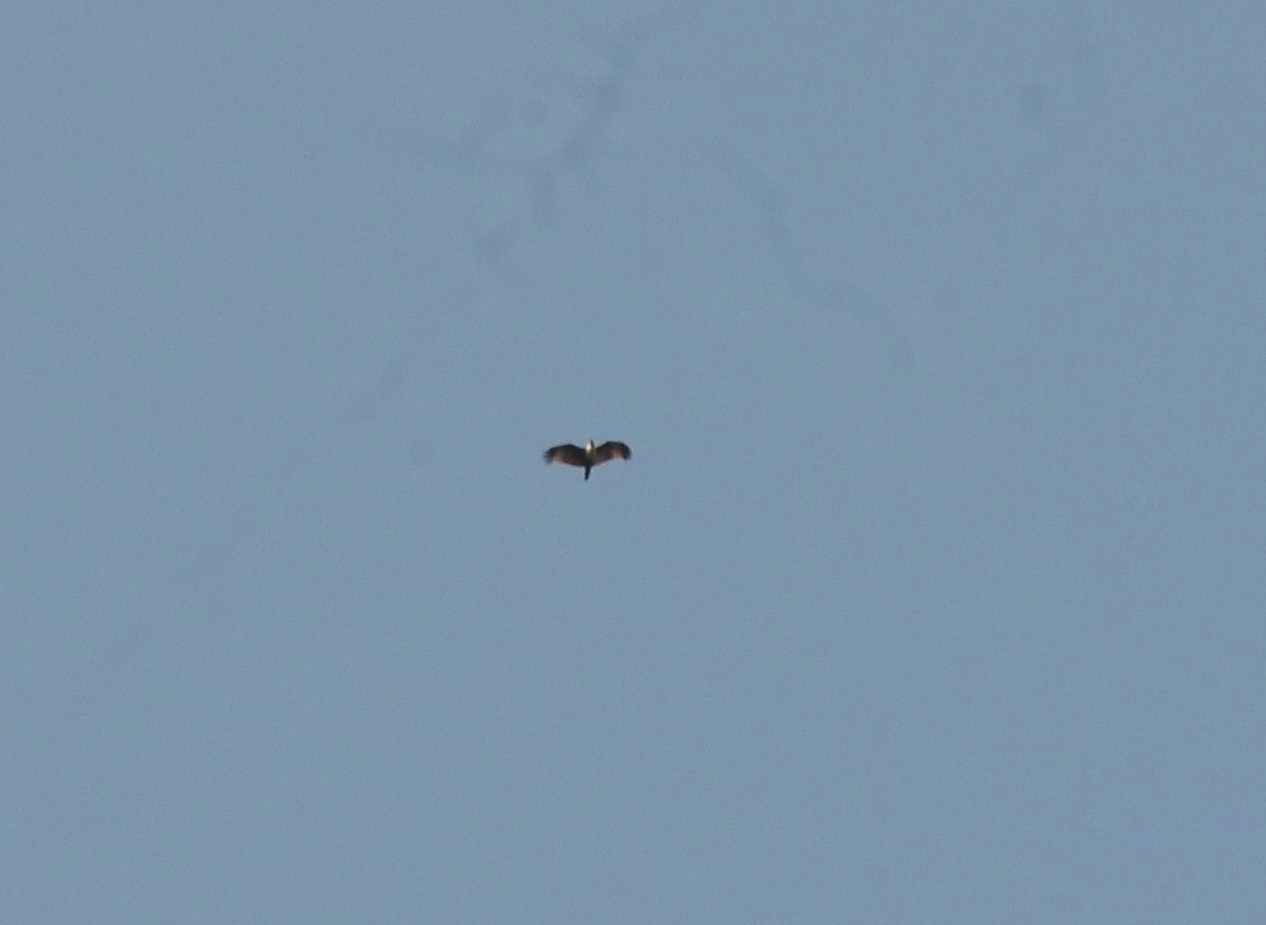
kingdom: Animalia
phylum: Chordata
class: Aves
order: Accipitriformes
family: Accipitridae
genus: Haliastur
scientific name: Haliastur indus
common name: Brahminy kite
